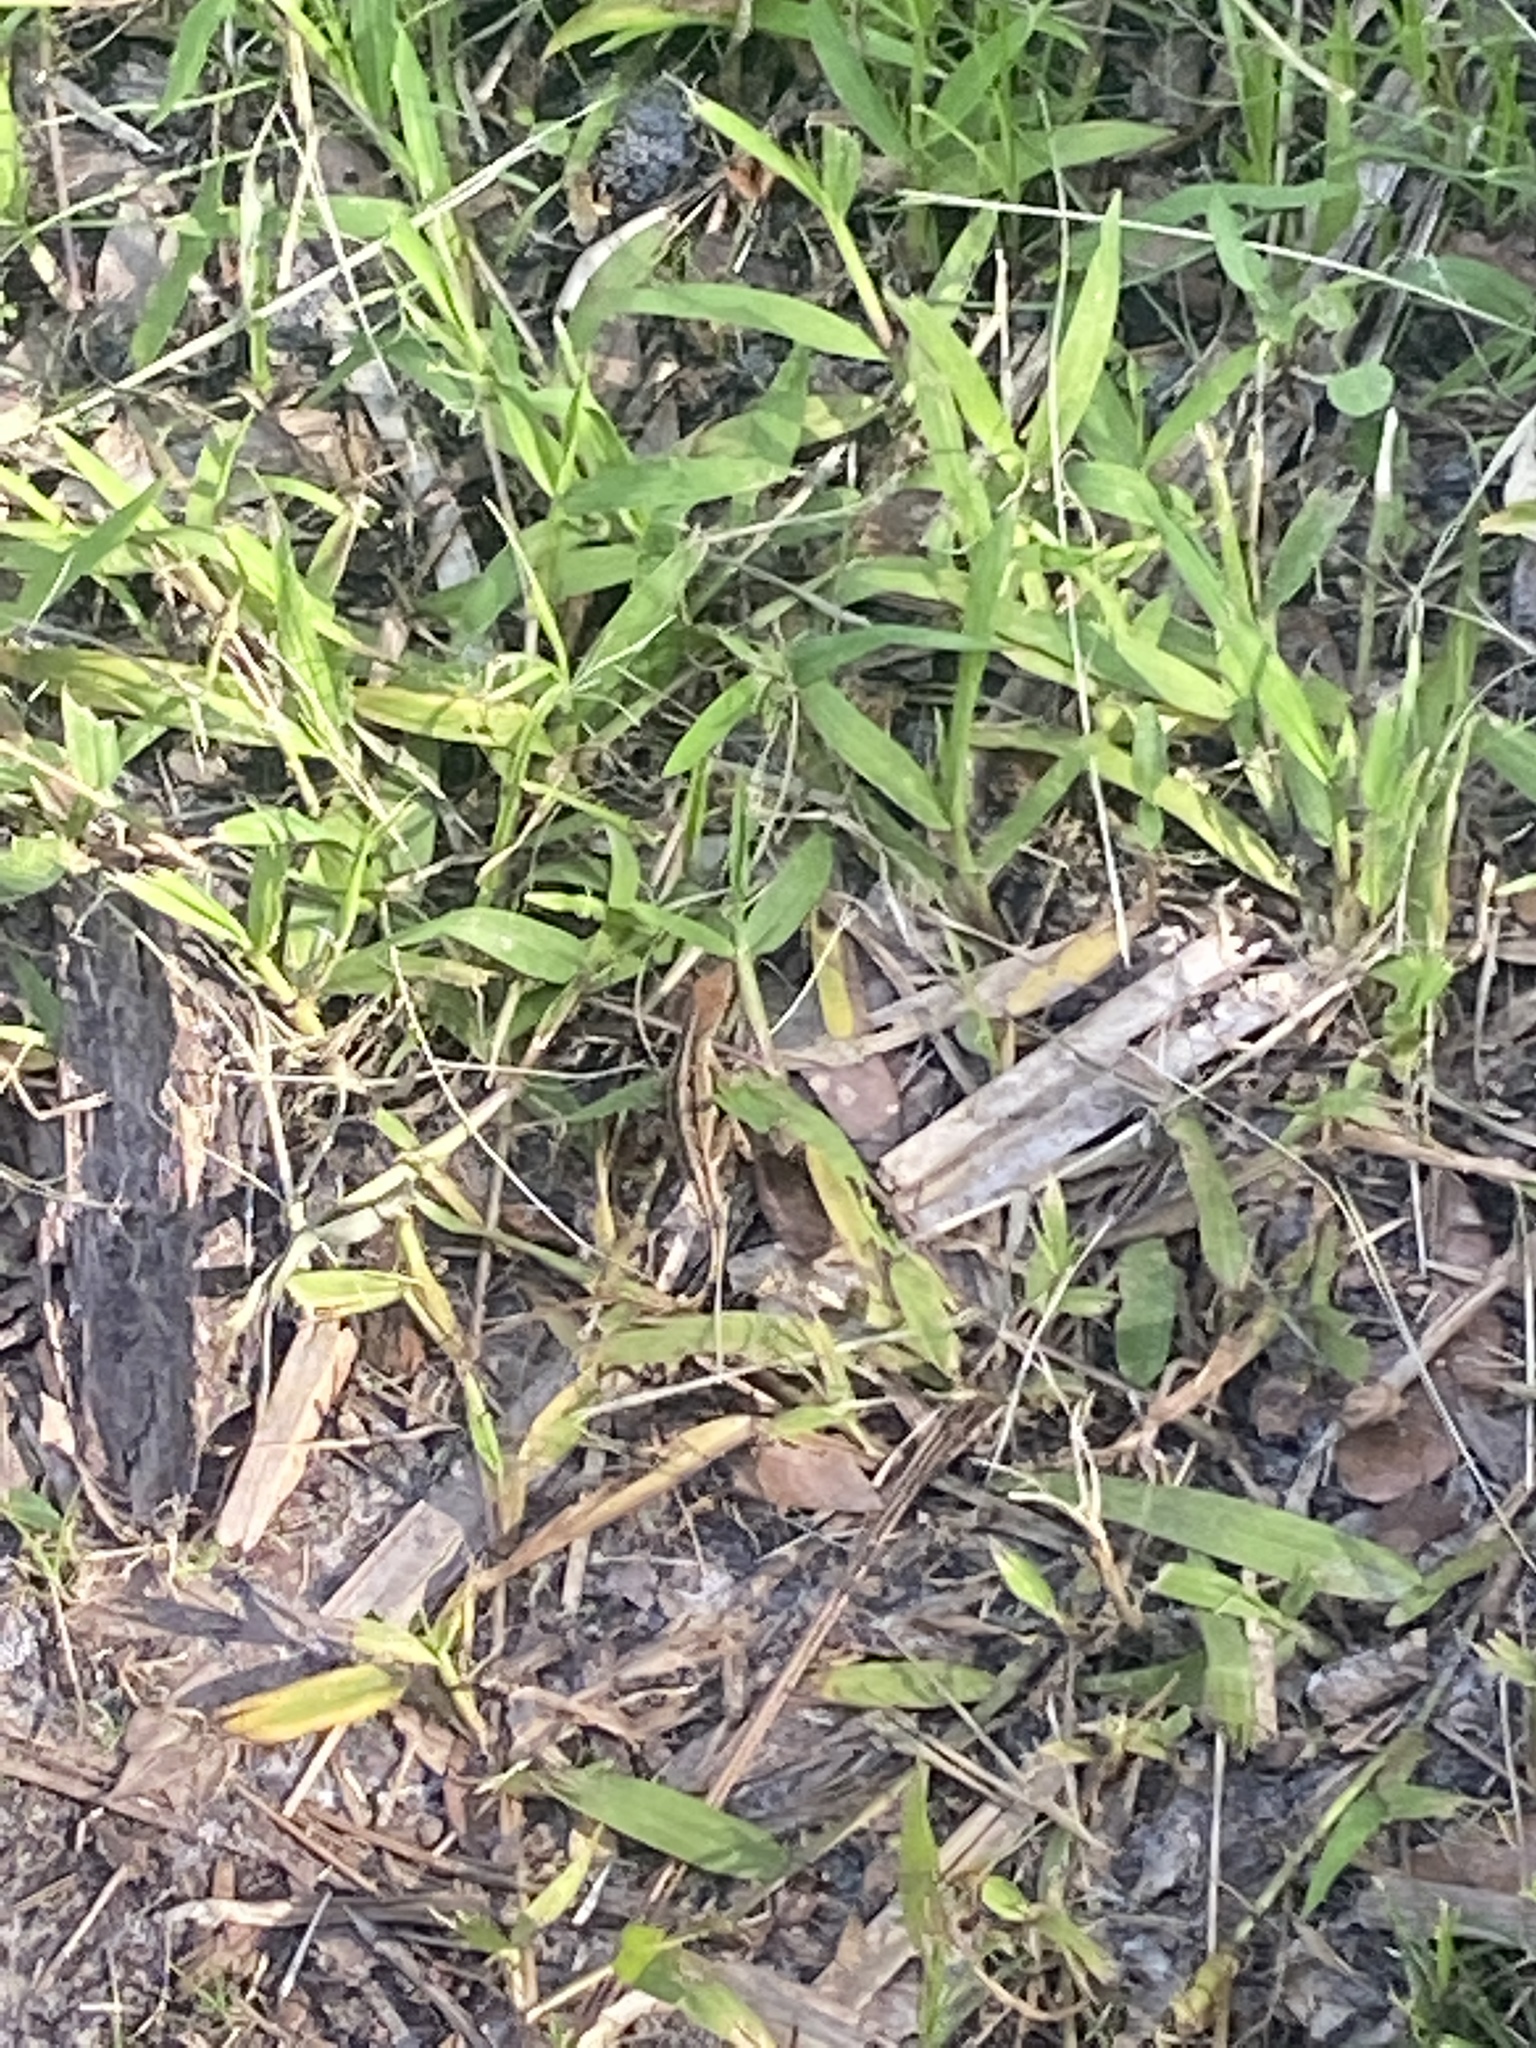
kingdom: Animalia
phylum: Chordata
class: Squamata
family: Dactyloidae
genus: Anolis
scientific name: Anolis sagrei
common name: Brown anole
